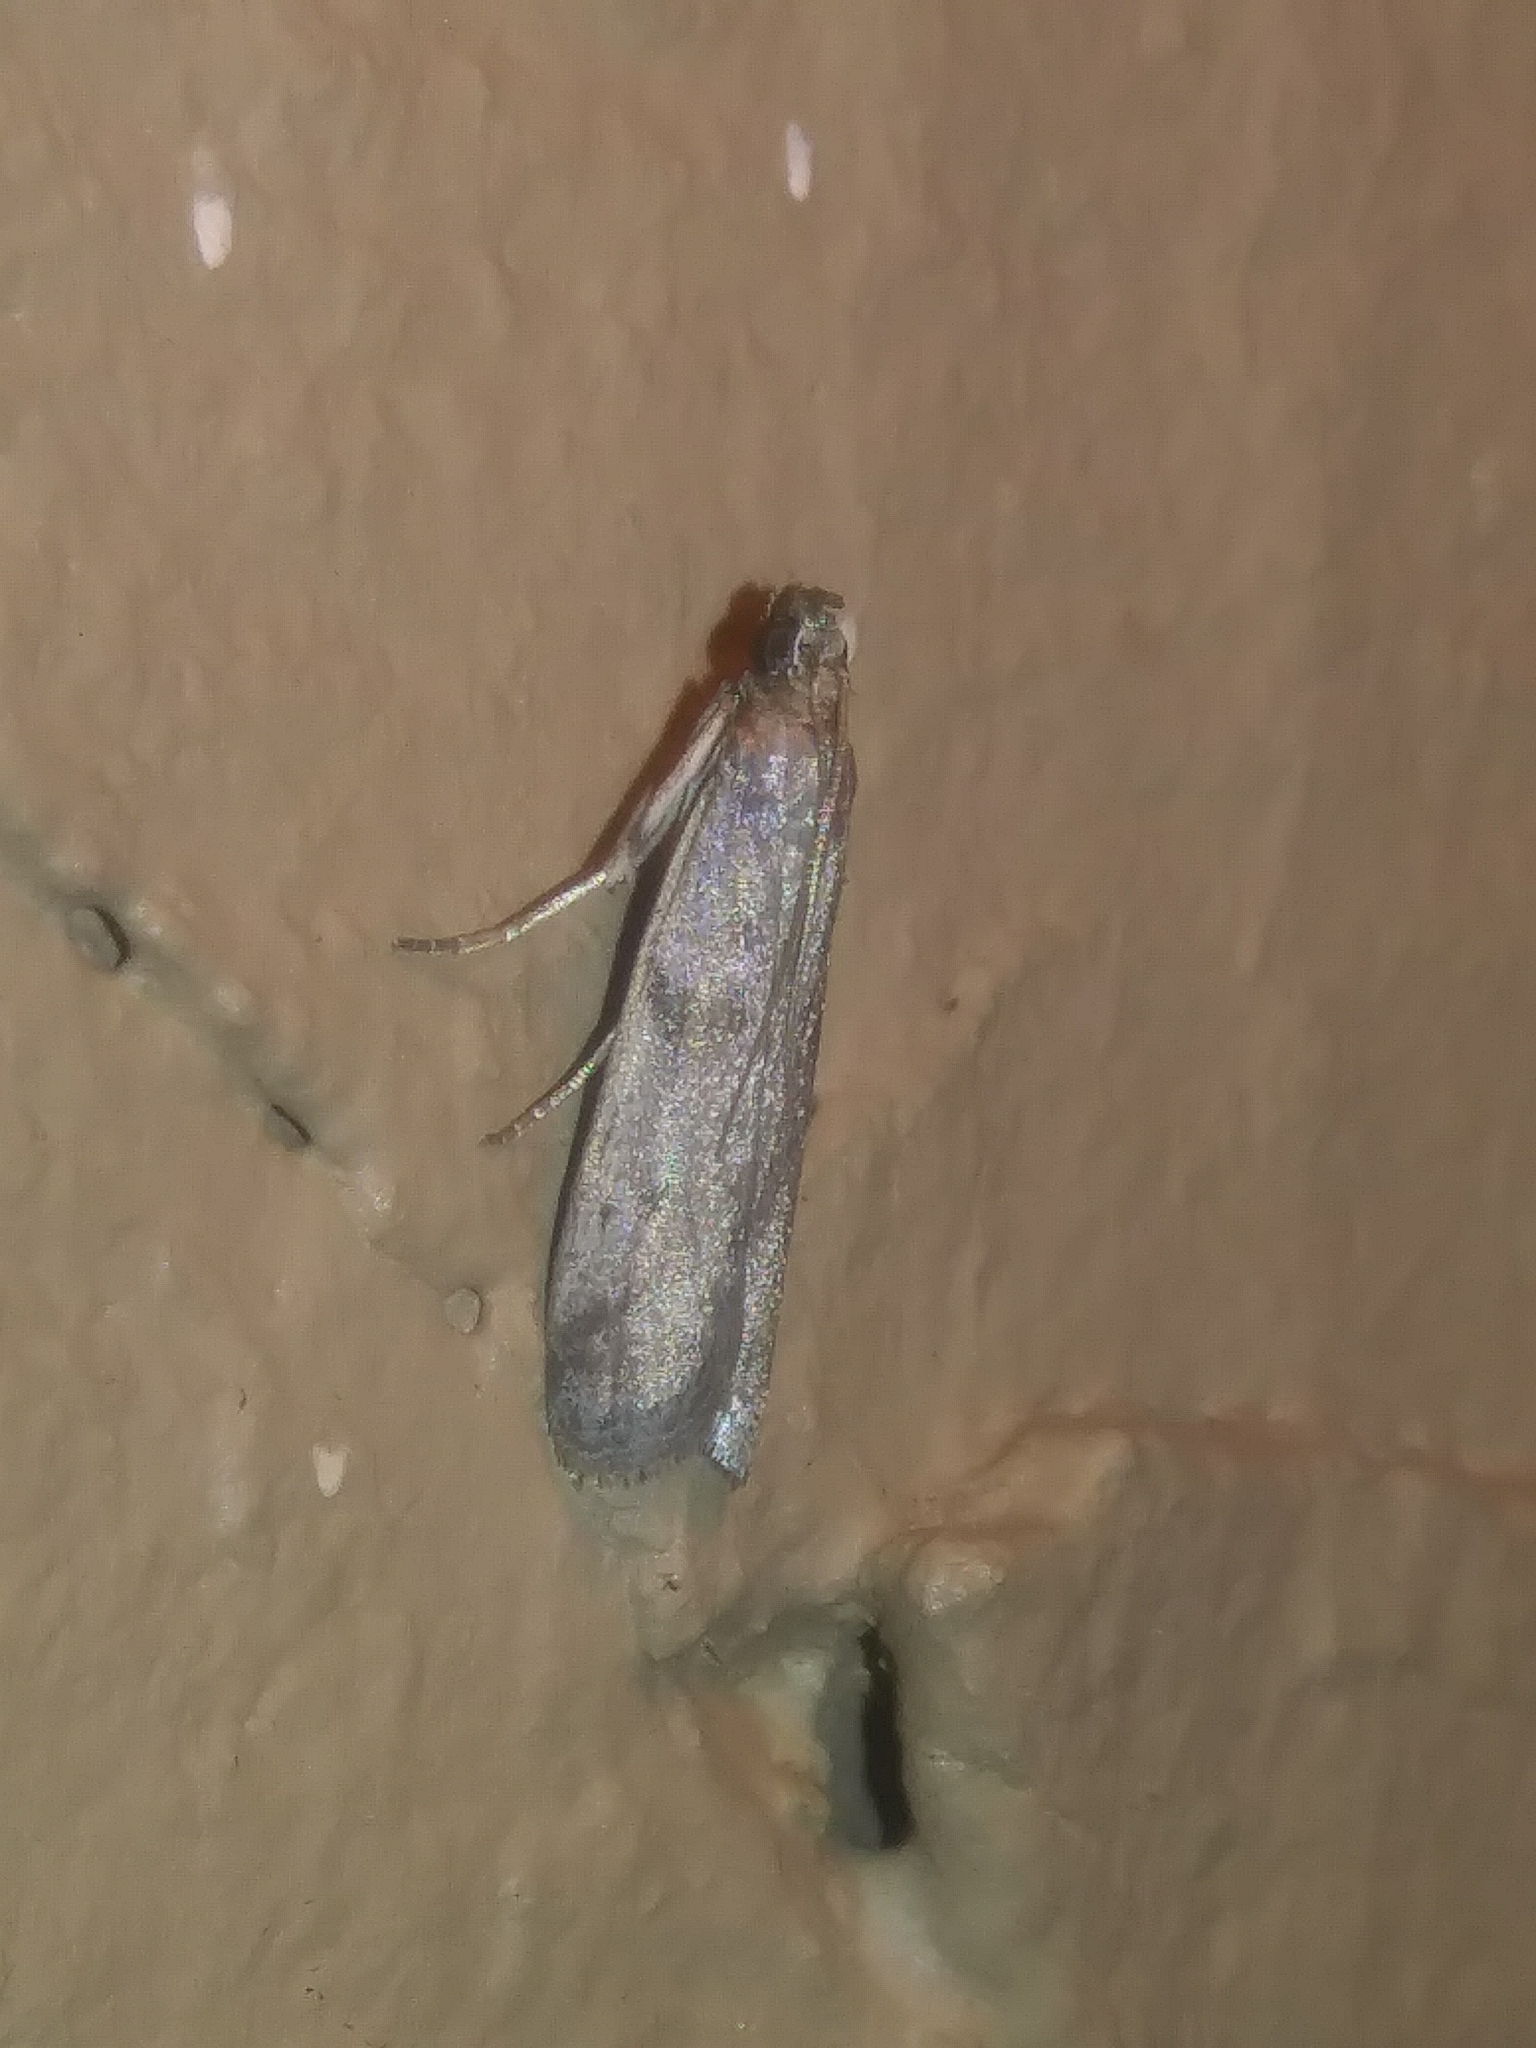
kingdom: Animalia
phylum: Arthropoda
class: Insecta
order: Lepidoptera
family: Pyralidae
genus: Phycitodes
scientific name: Phycitodes mucidellus
